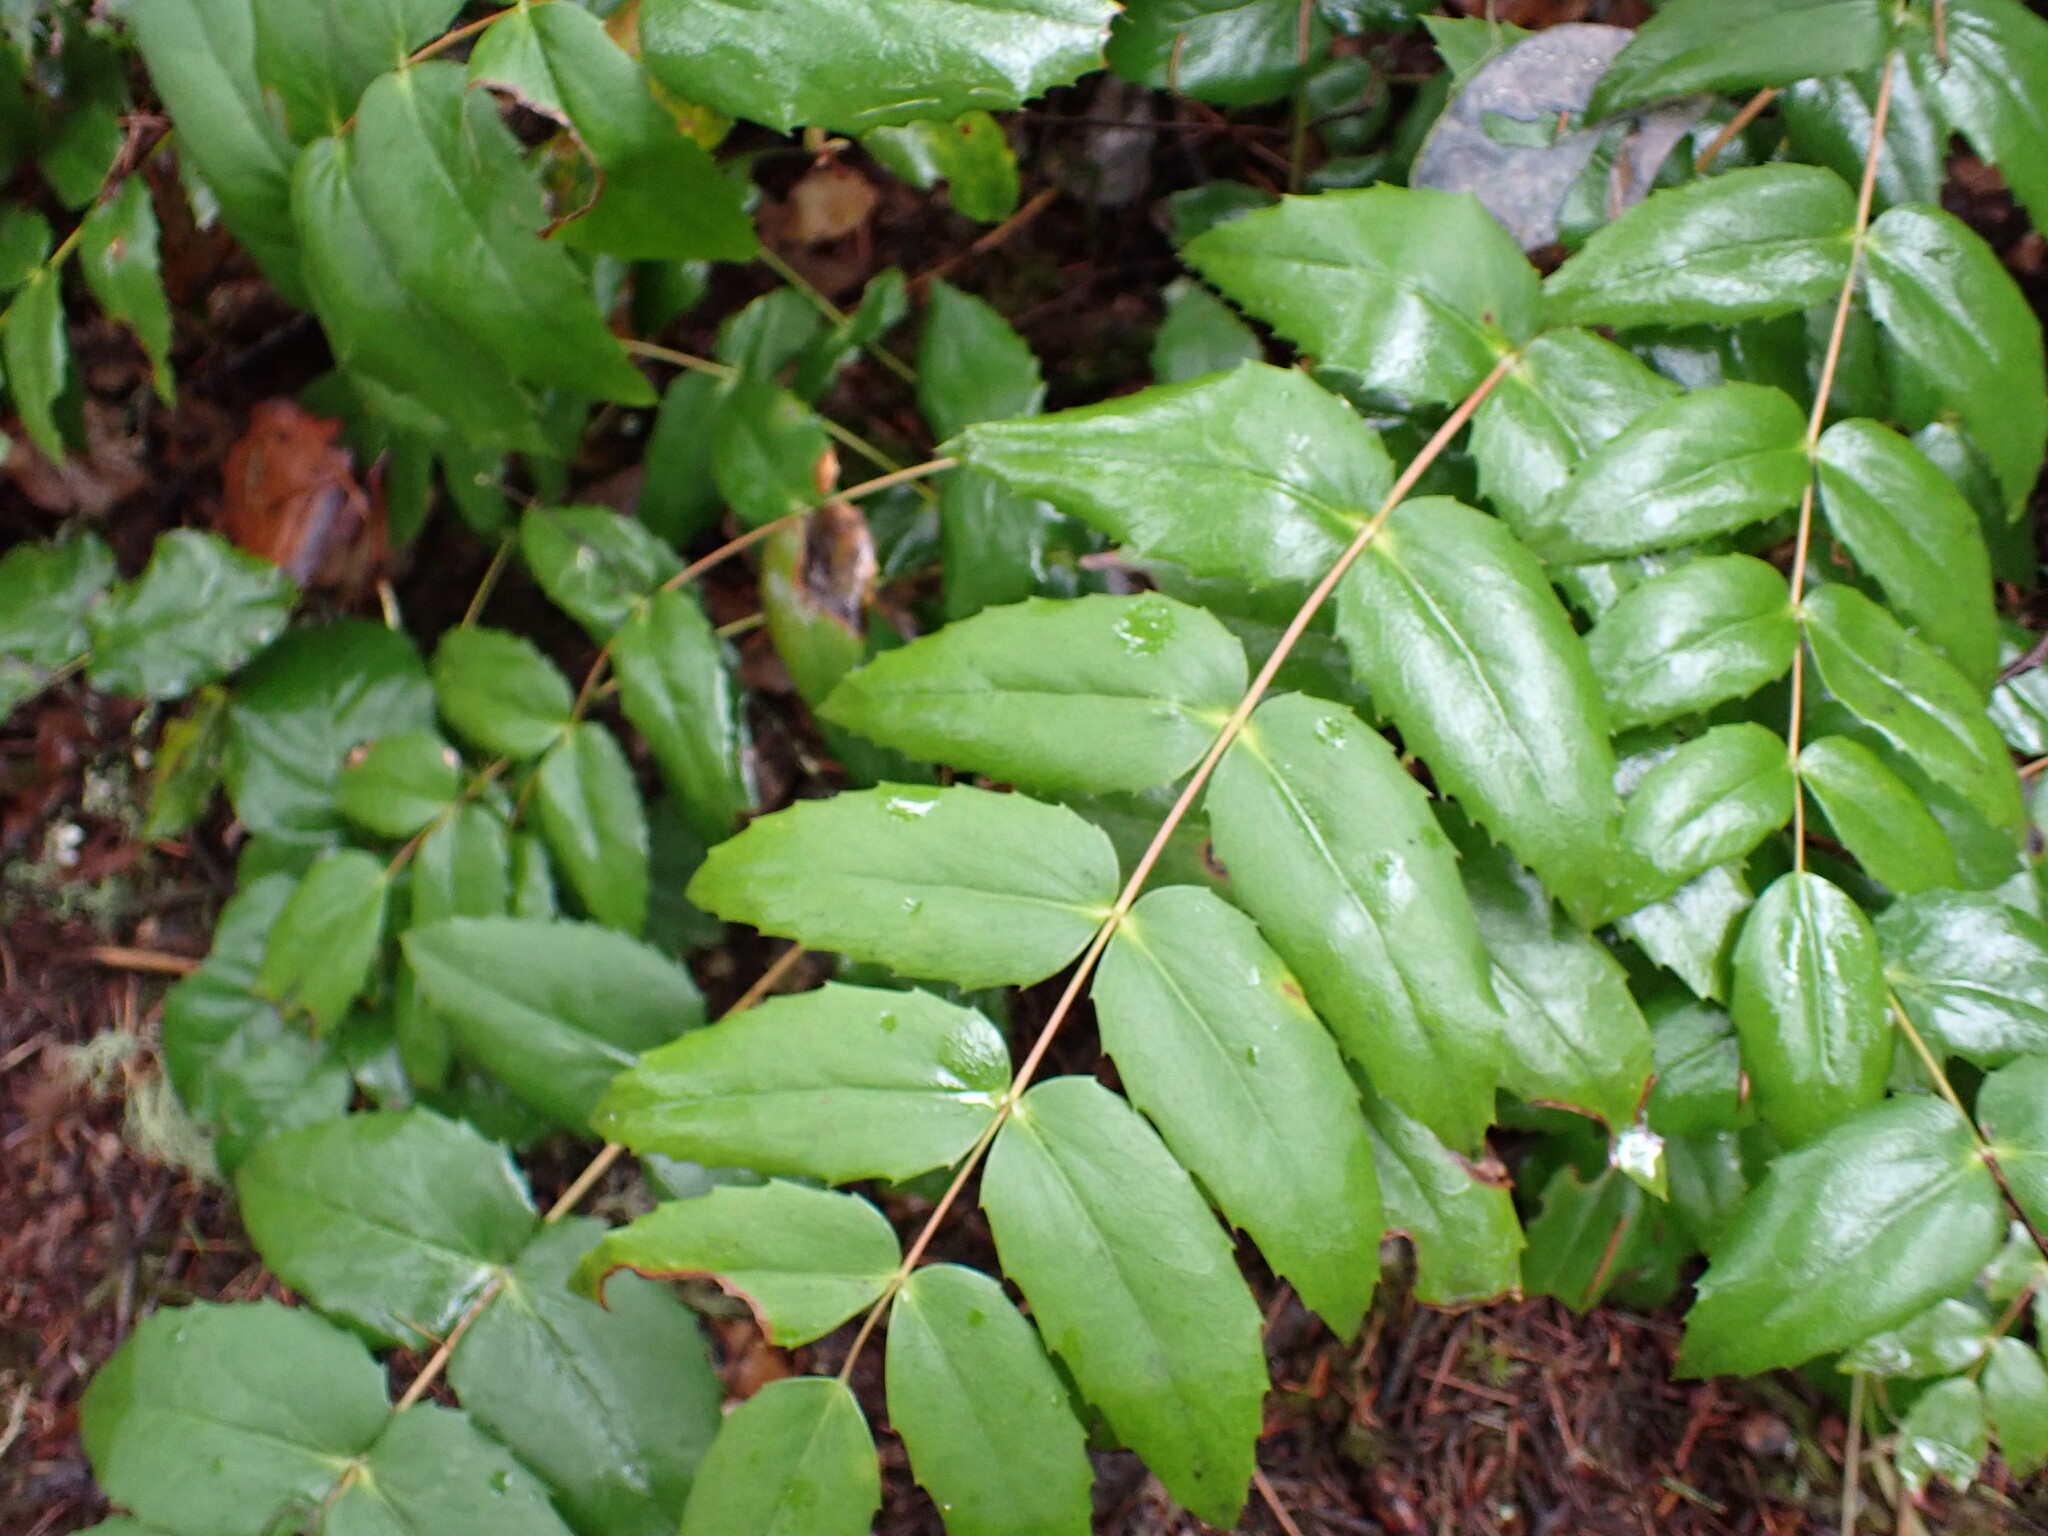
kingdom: Plantae
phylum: Tracheophyta
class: Magnoliopsida
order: Ranunculales
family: Berberidaceae
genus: Mahonia
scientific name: Mahonia nervosa
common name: Cascade oregon-grape
